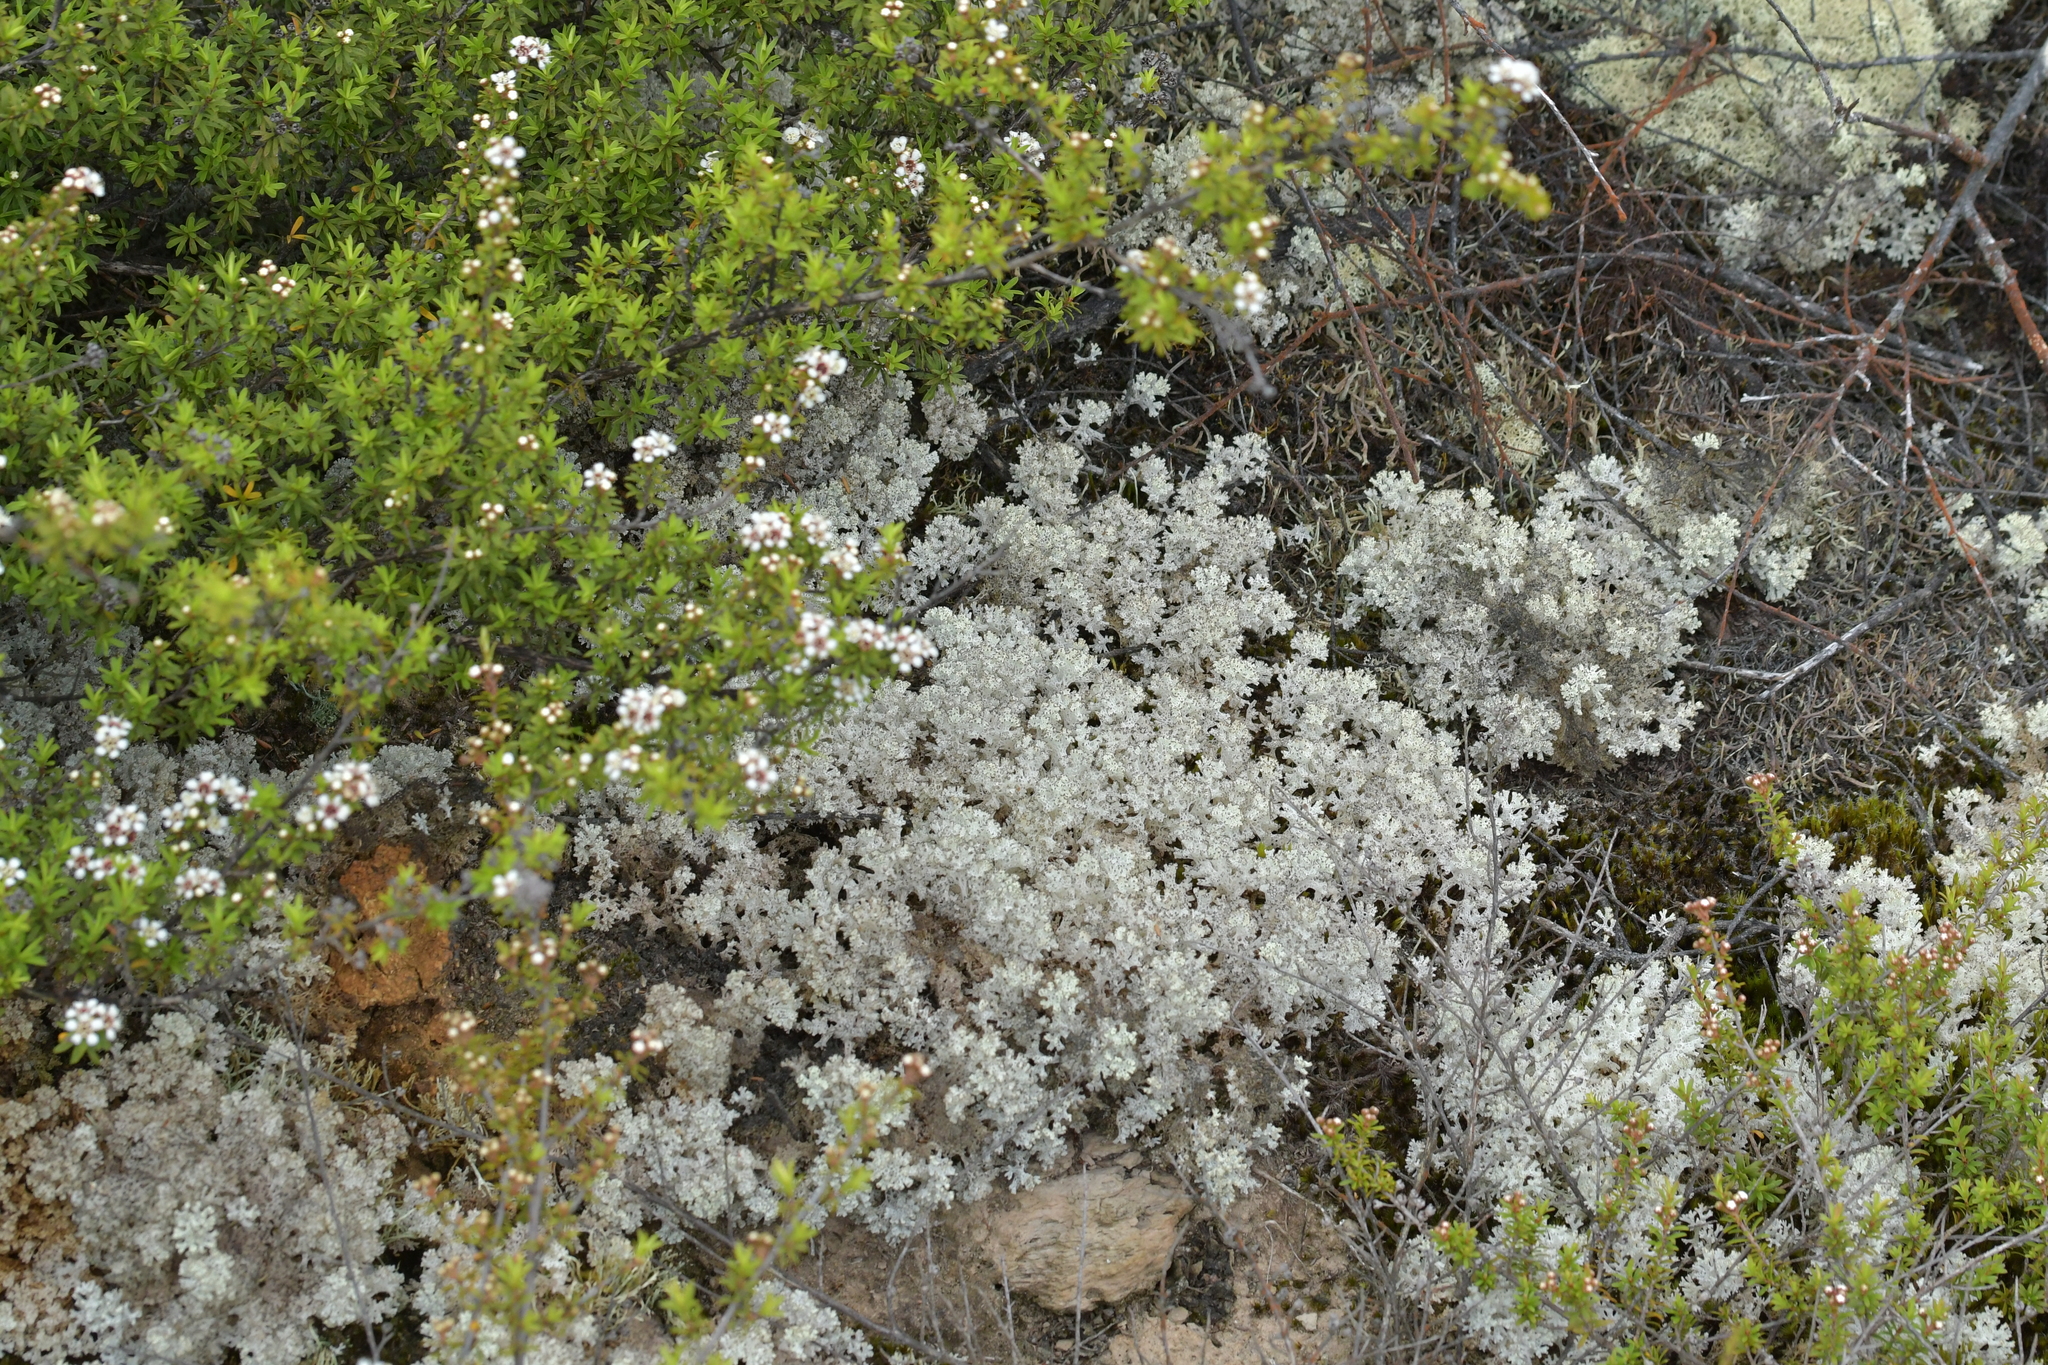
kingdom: Fungi
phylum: Ascomycota
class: Lecanoromycetes
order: Lecanorales
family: Cladoniaceae
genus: Pulchrocladia
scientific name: Pulchrocladia retipora
